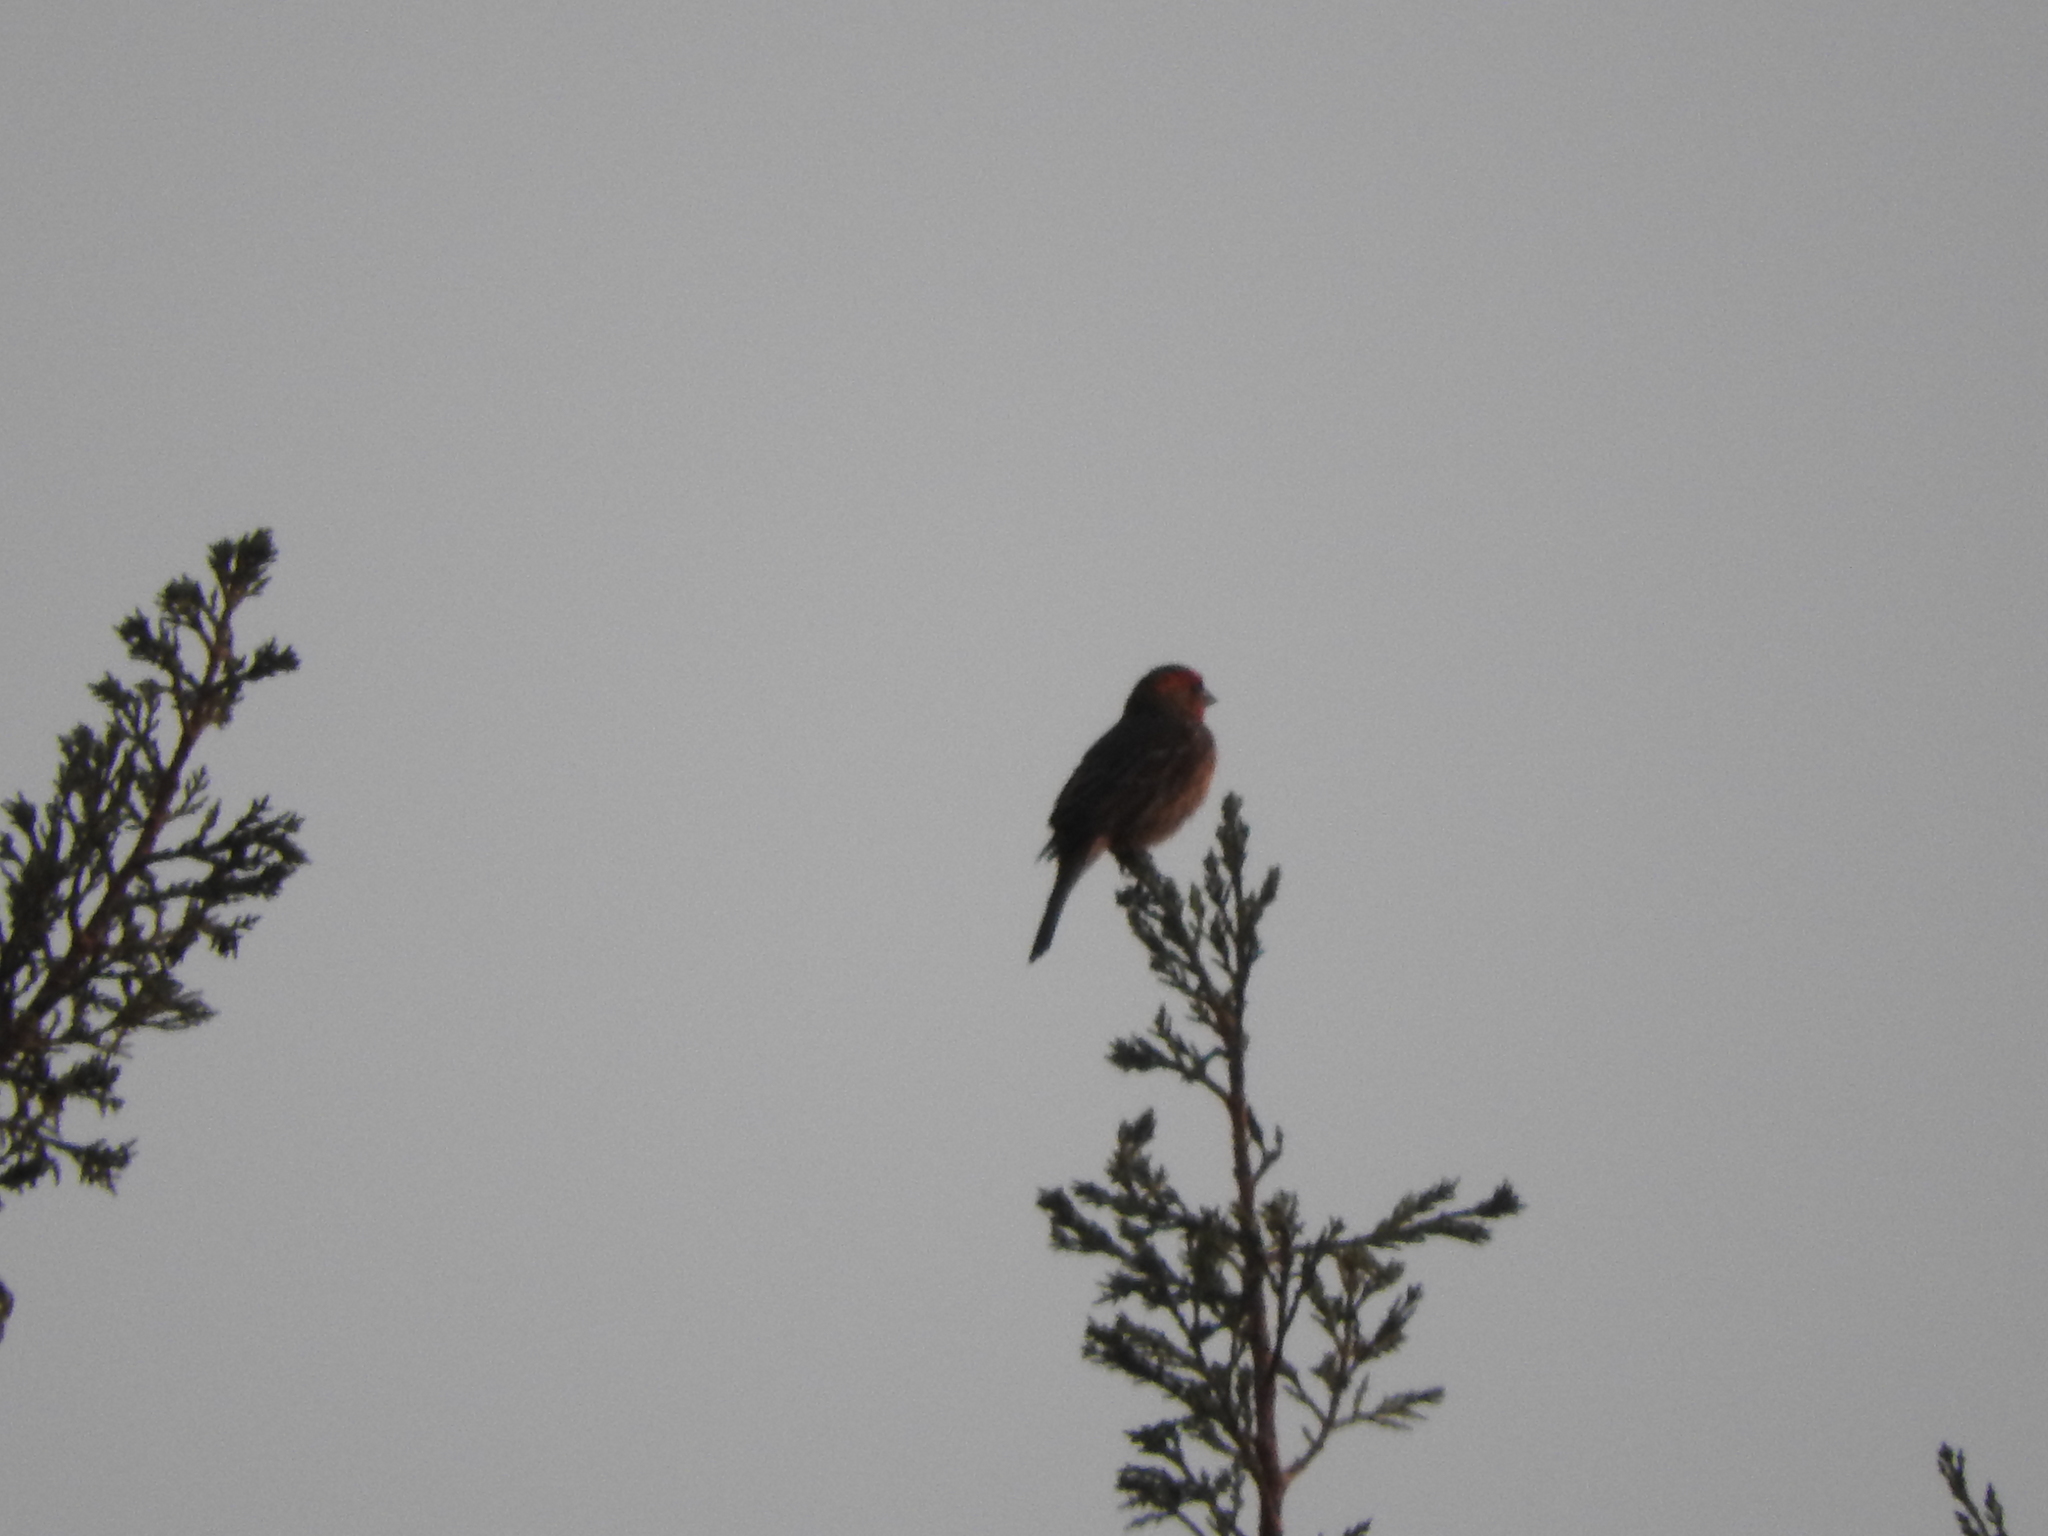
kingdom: Animalia
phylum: Chordata
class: Aves
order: Passeriformes
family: Fringillidae
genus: Haemorhous
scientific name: Haemorhous mexicanus
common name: House finch
